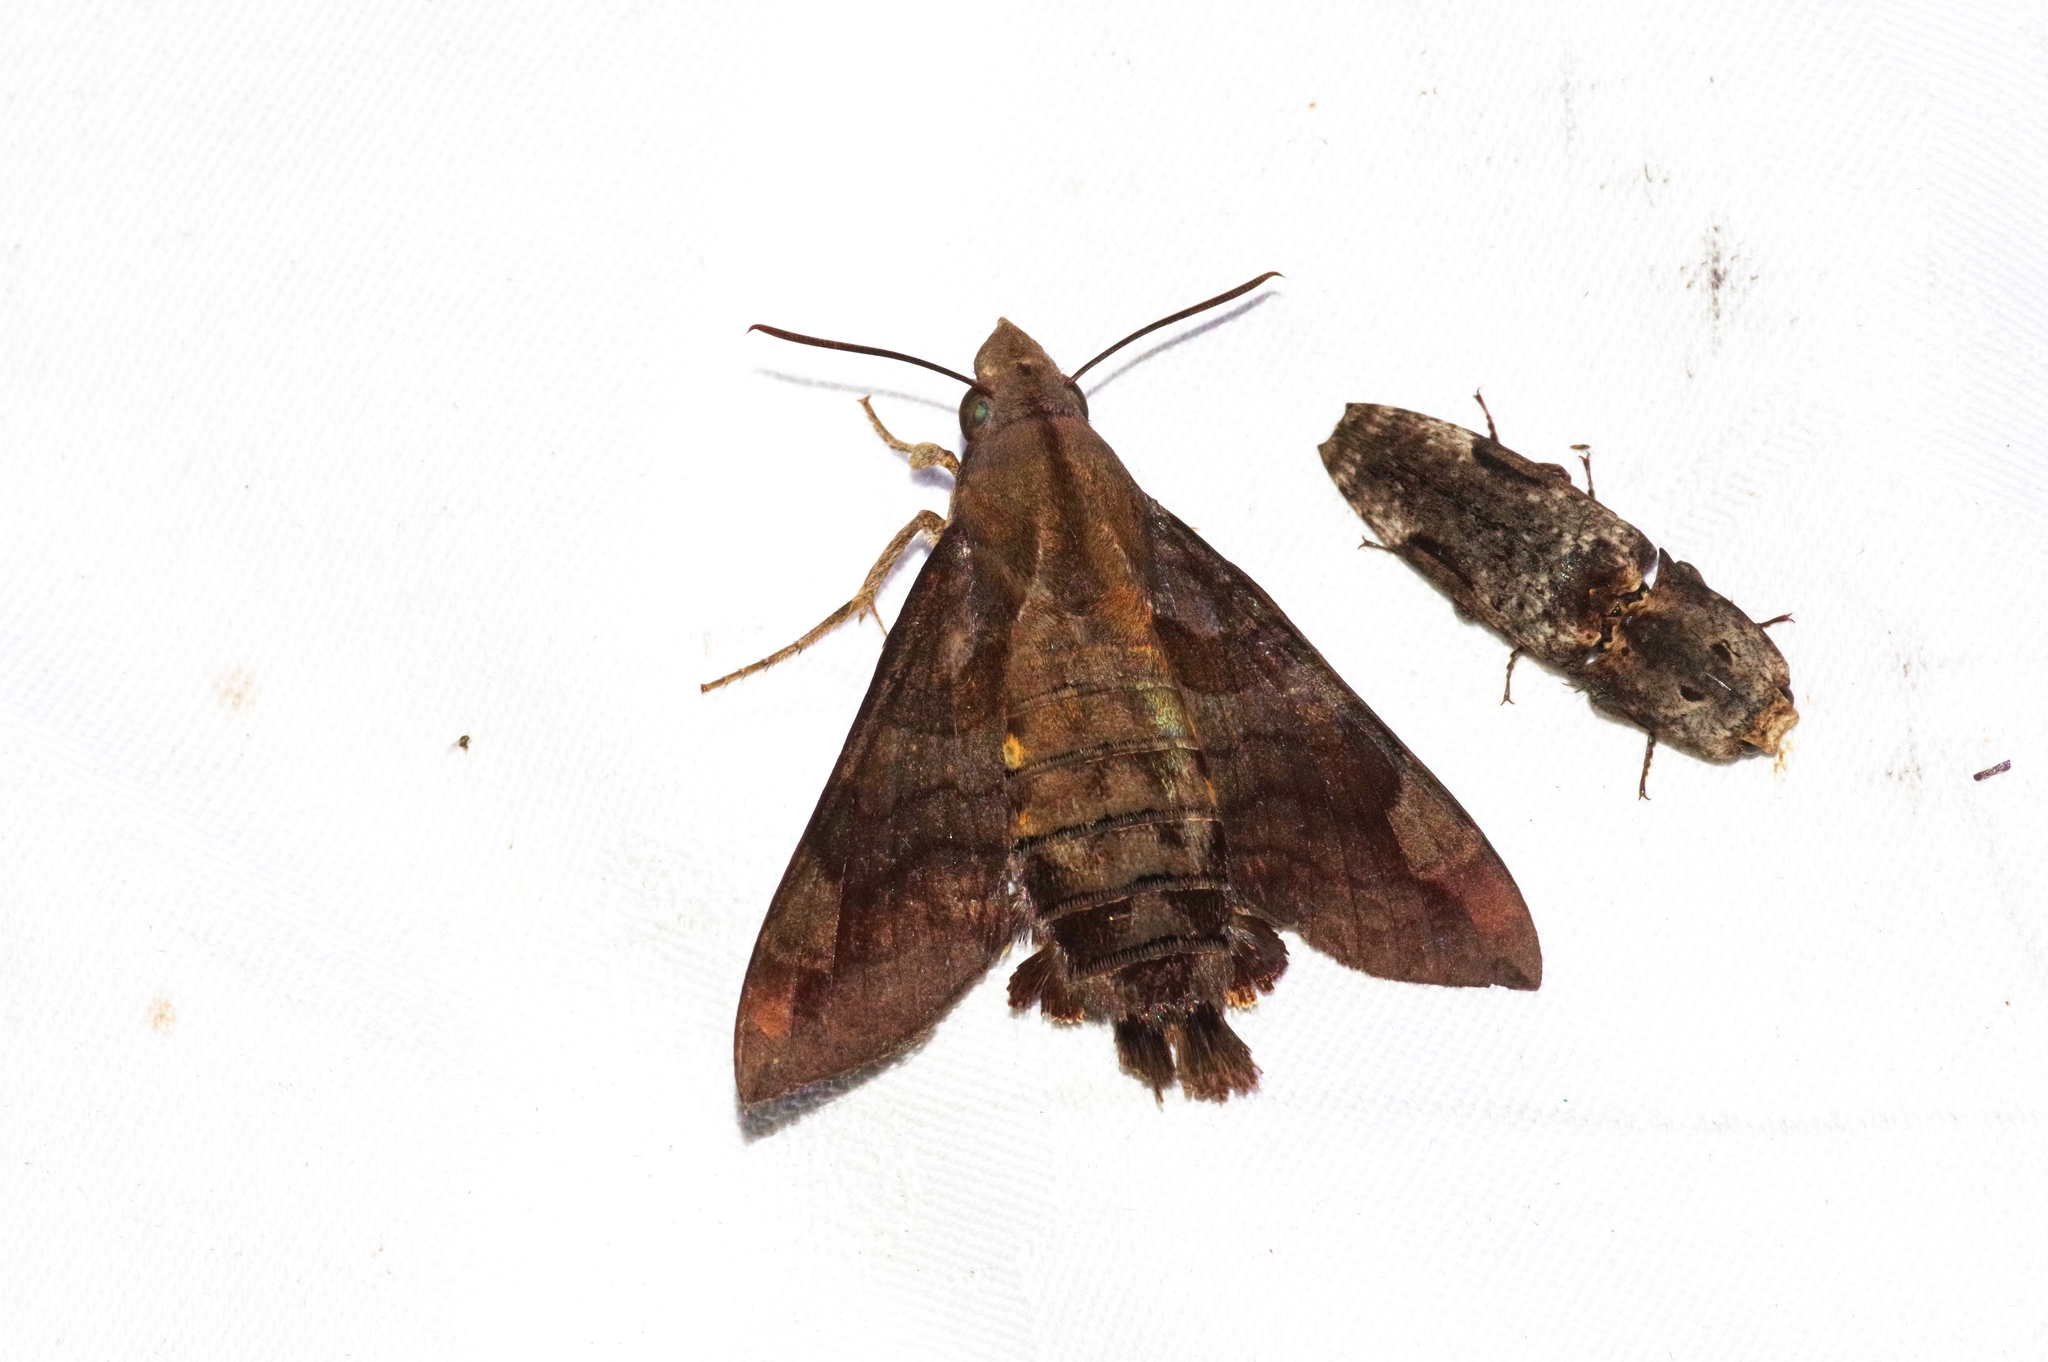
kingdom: Animalia
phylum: Arthropoda
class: Insecta
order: Lepidoptera
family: Sphingidae
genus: Macroglossum
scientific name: Macroglossum saga
